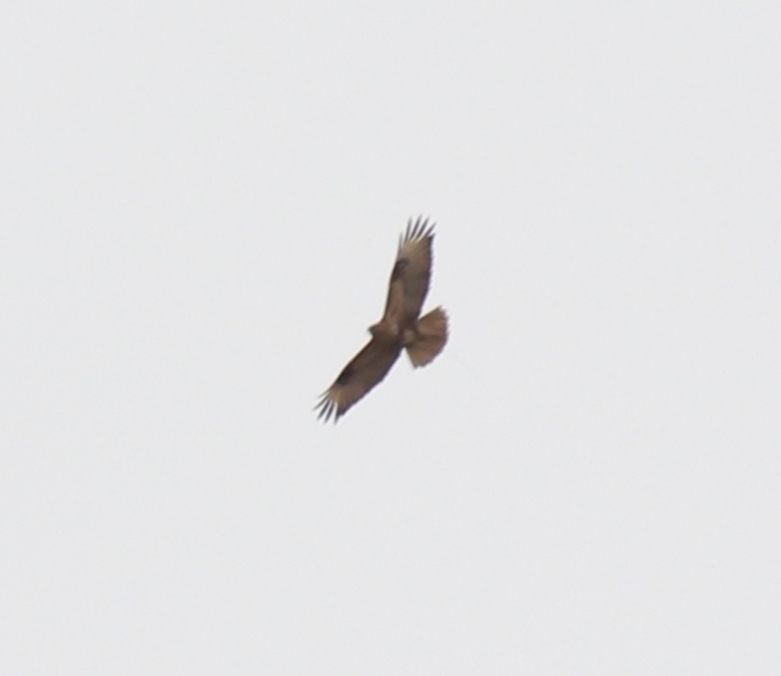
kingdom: Animalia
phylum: Chordata
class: Aves
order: Accipitriformes
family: Accipitridae
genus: Circus
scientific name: Circus spilonotus
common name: Eastern marsh-harrier
